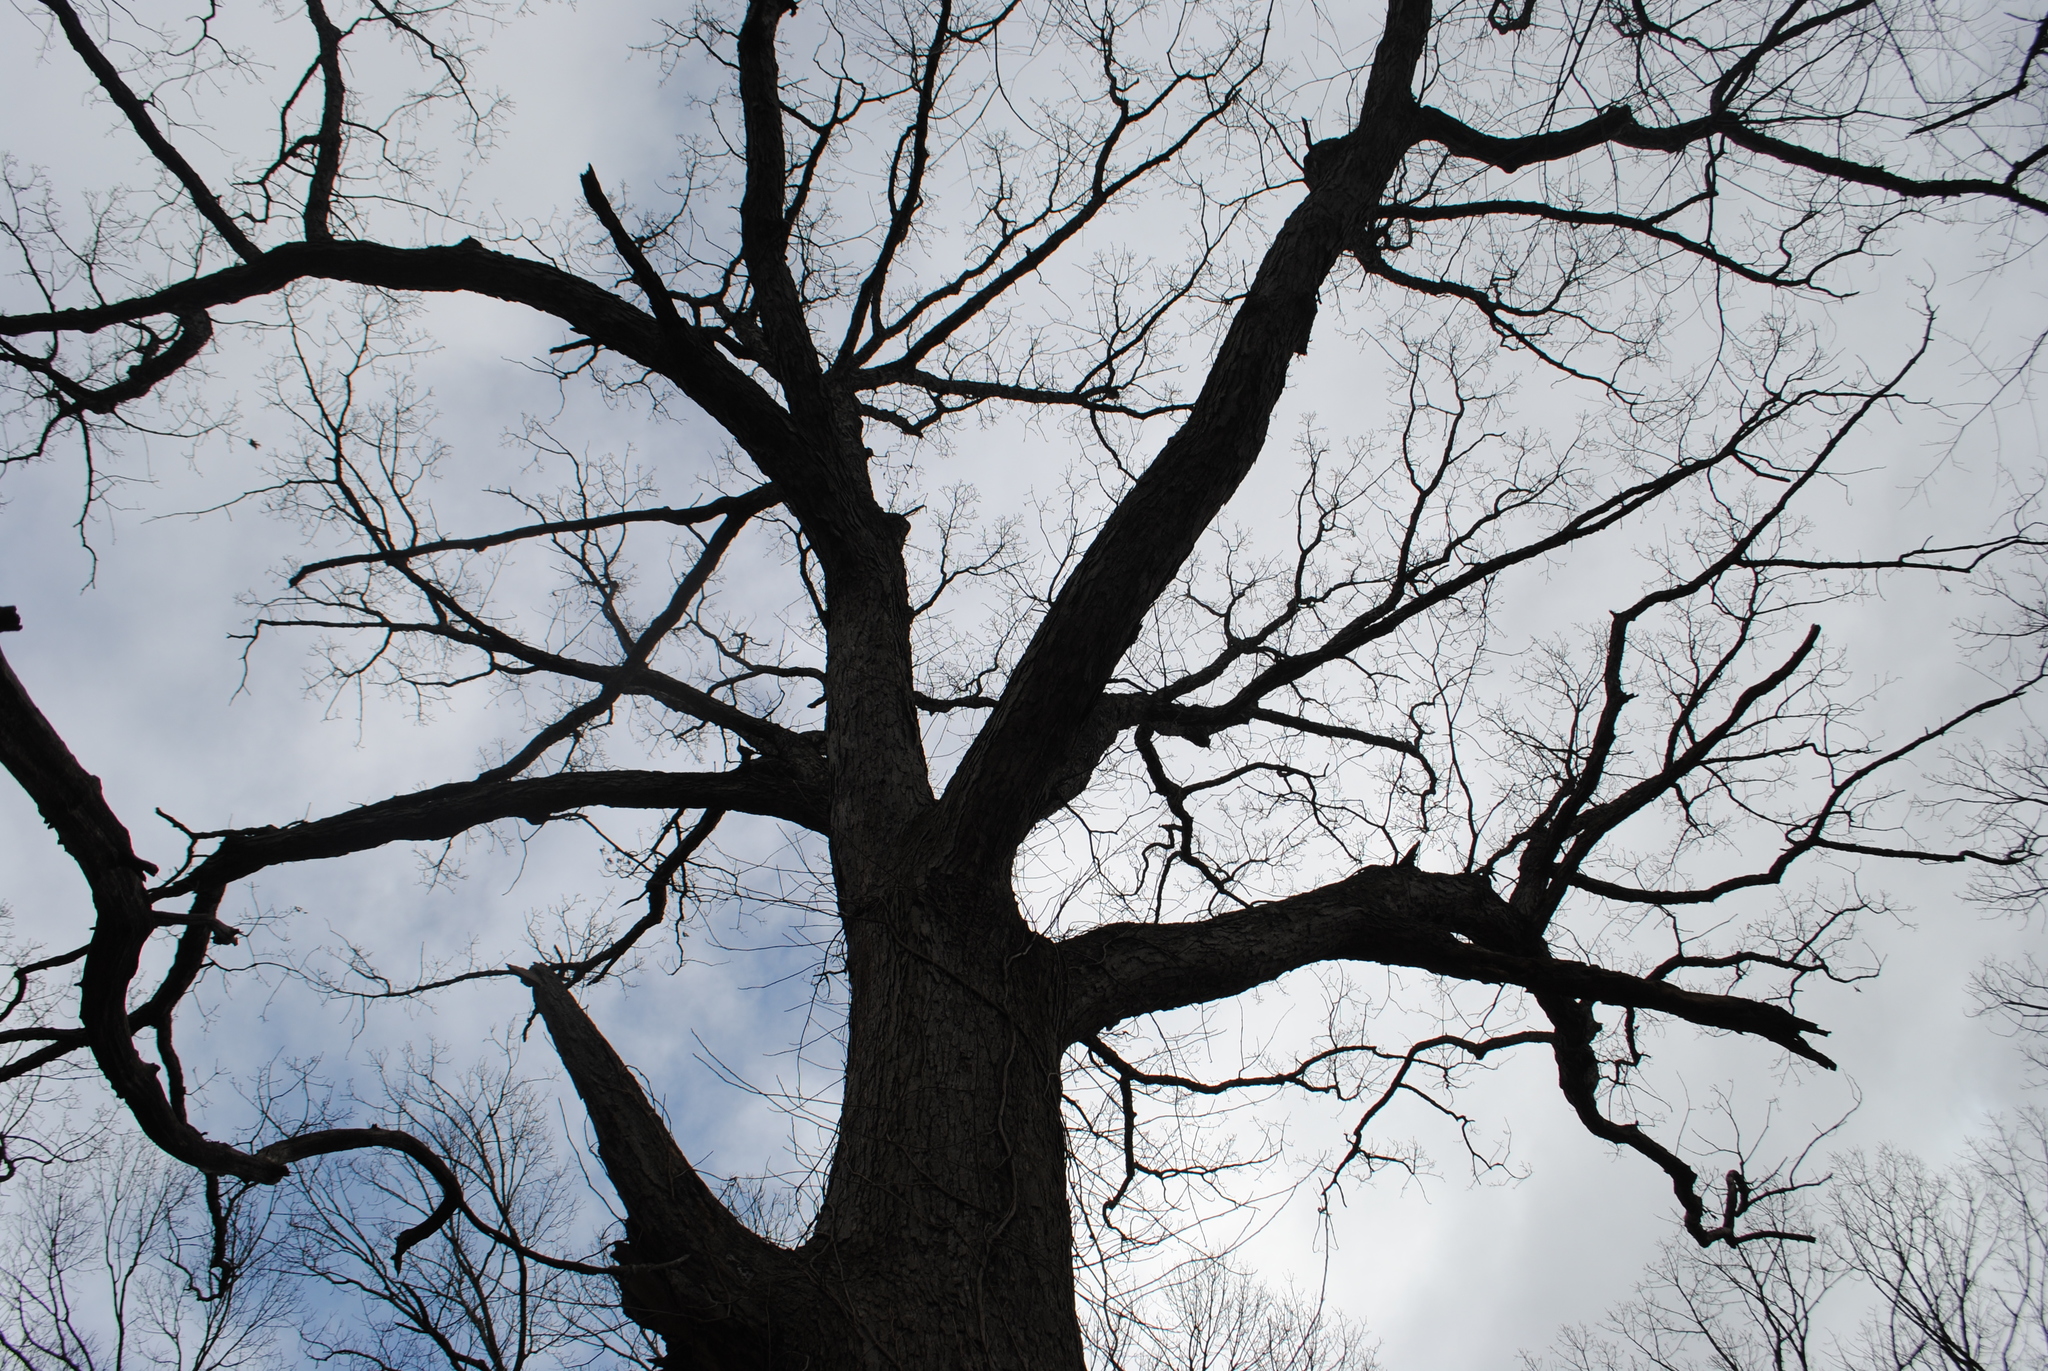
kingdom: Plantae
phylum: Tracheophyta
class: Magnoliopsida
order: Fagales
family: Fagaceae
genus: Quercus
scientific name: Quercus alba
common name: White oak
